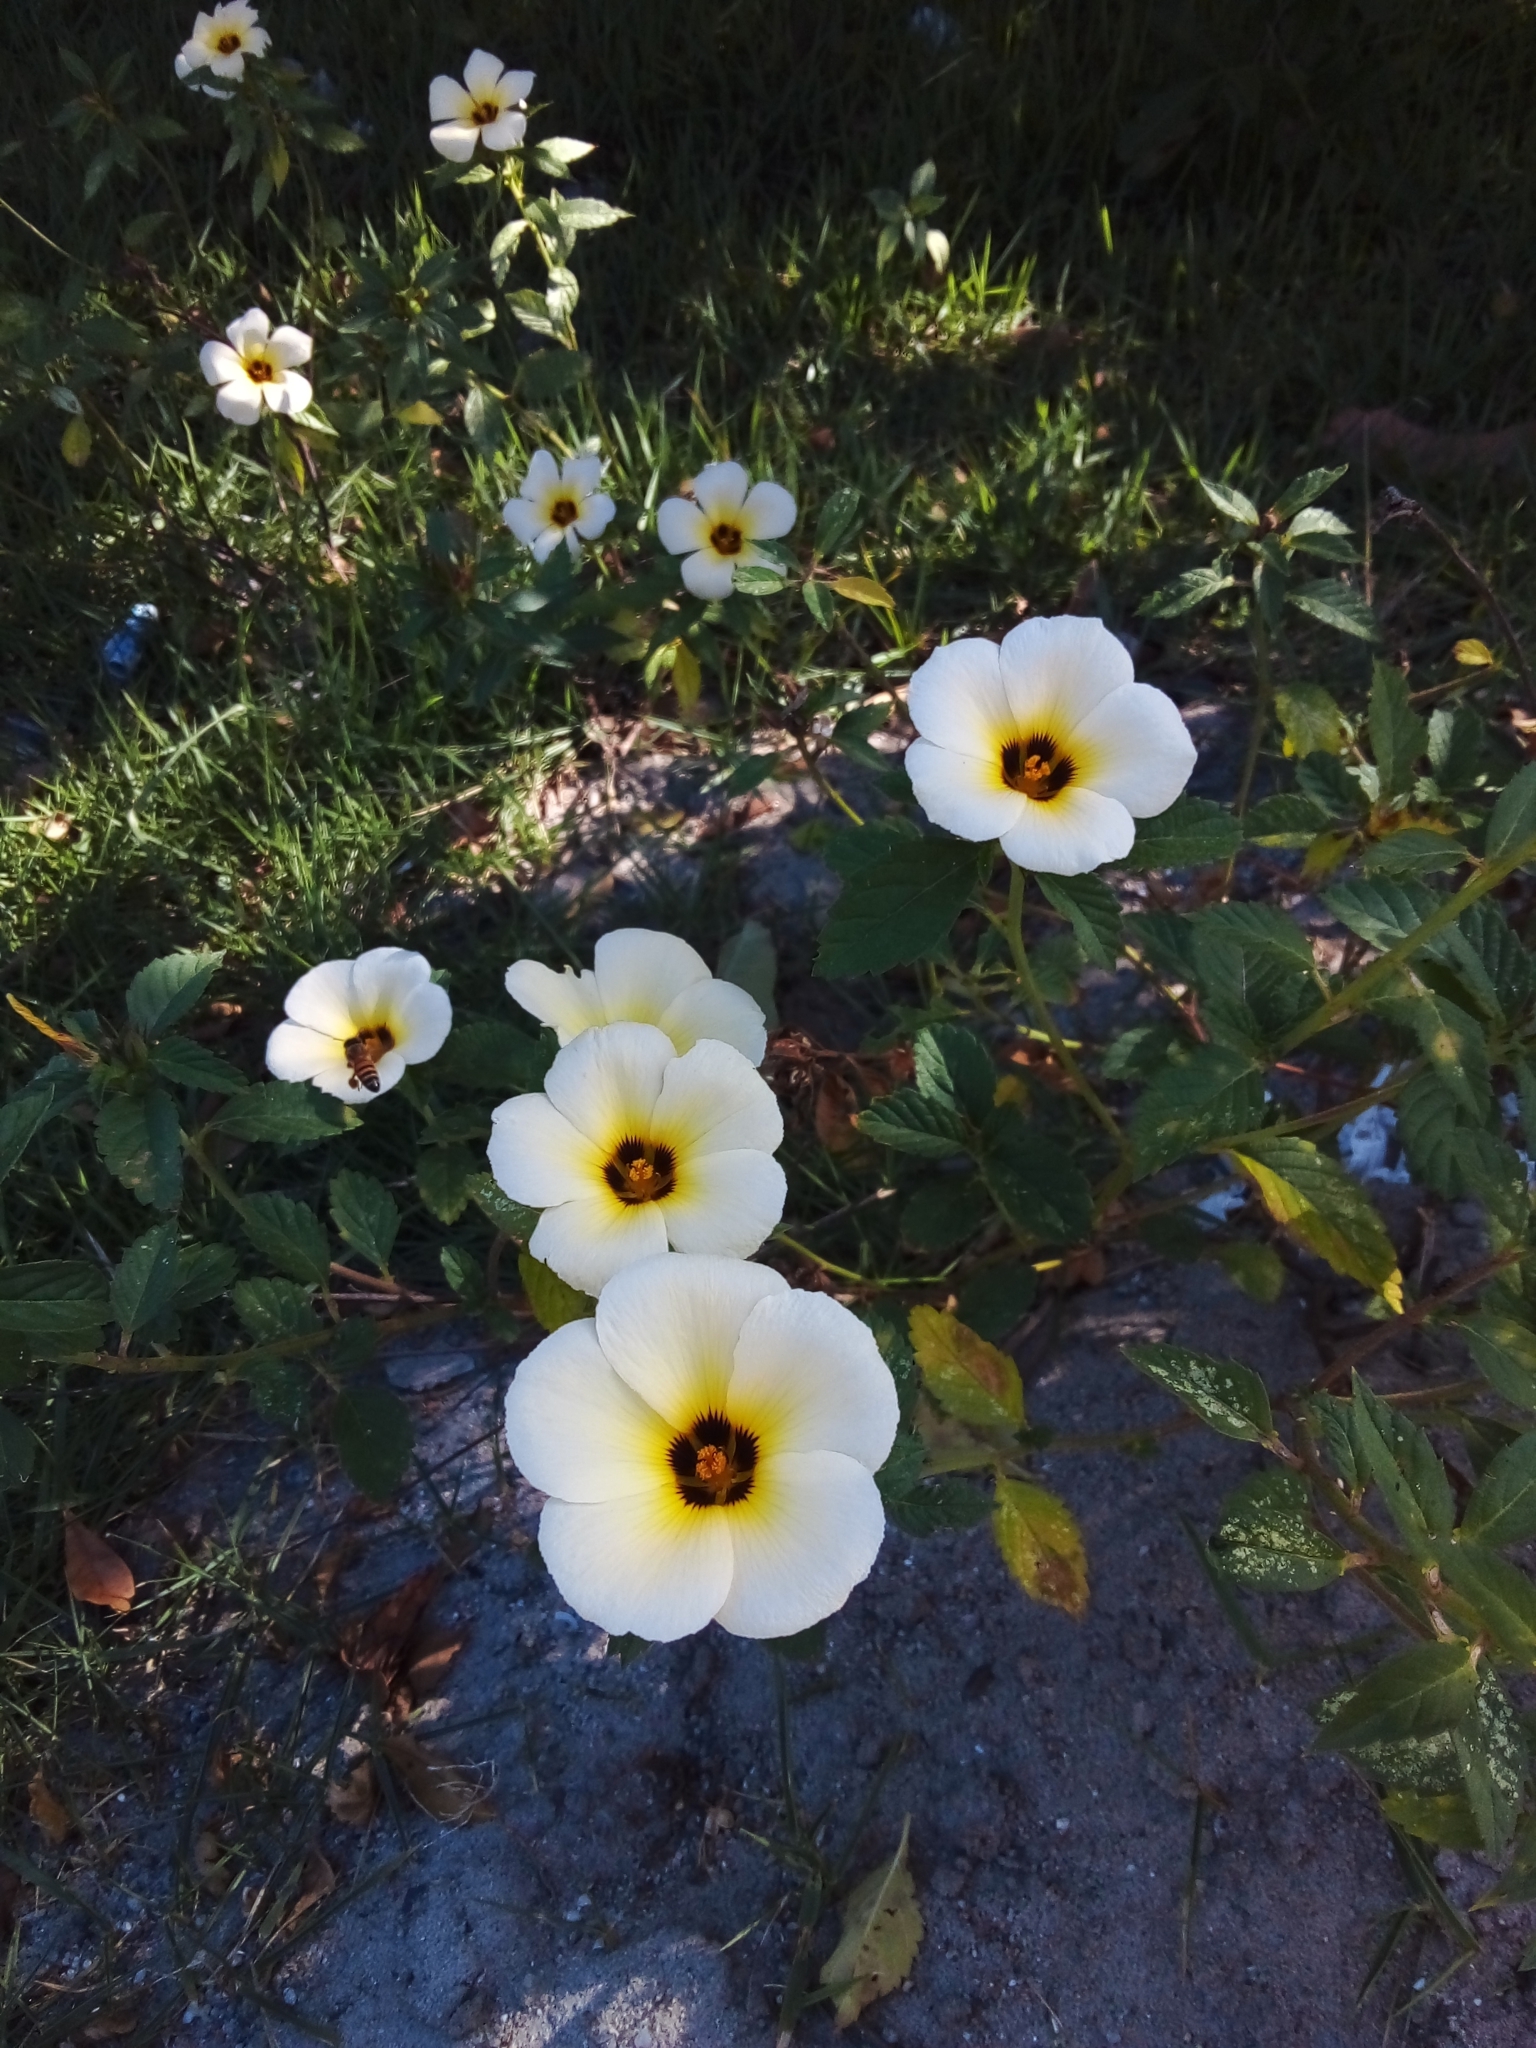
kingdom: Plantae
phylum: Tracheophyta
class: Magnoliopsida
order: Malpighiales
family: Turneraceae
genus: Turnera
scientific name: Turnera subulata
